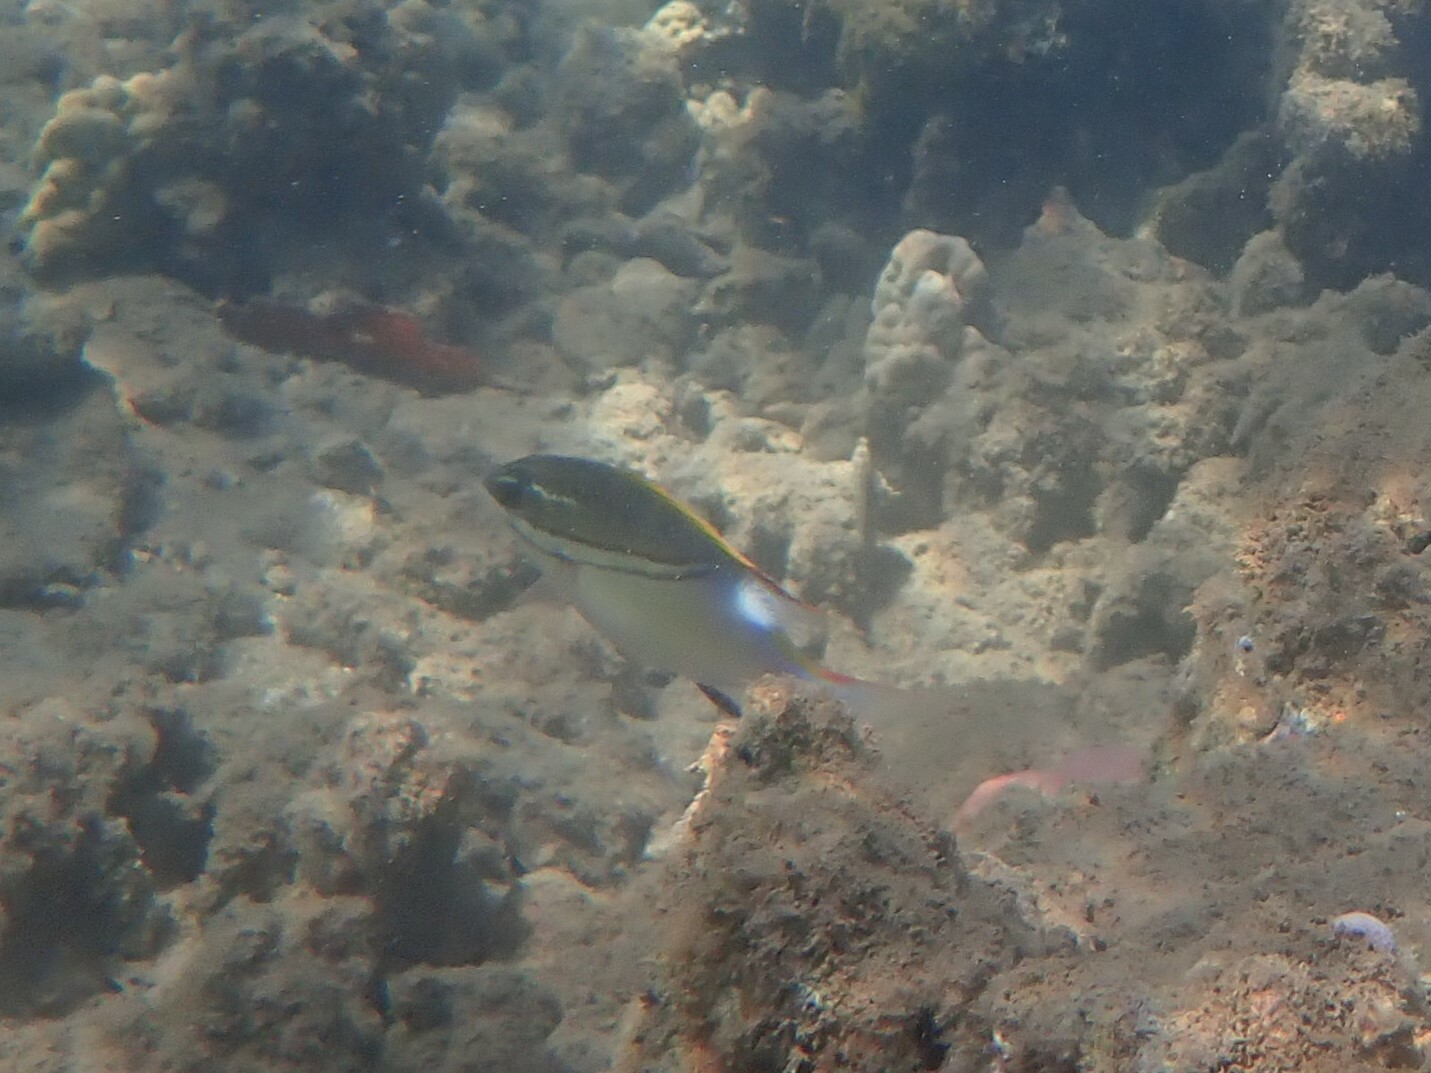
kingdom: Animalia
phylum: Chordata
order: Perciformes
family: Nemipteridae
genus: Scolopsis
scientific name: Scolopsis bilineata
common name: Two-lined monocle bream
